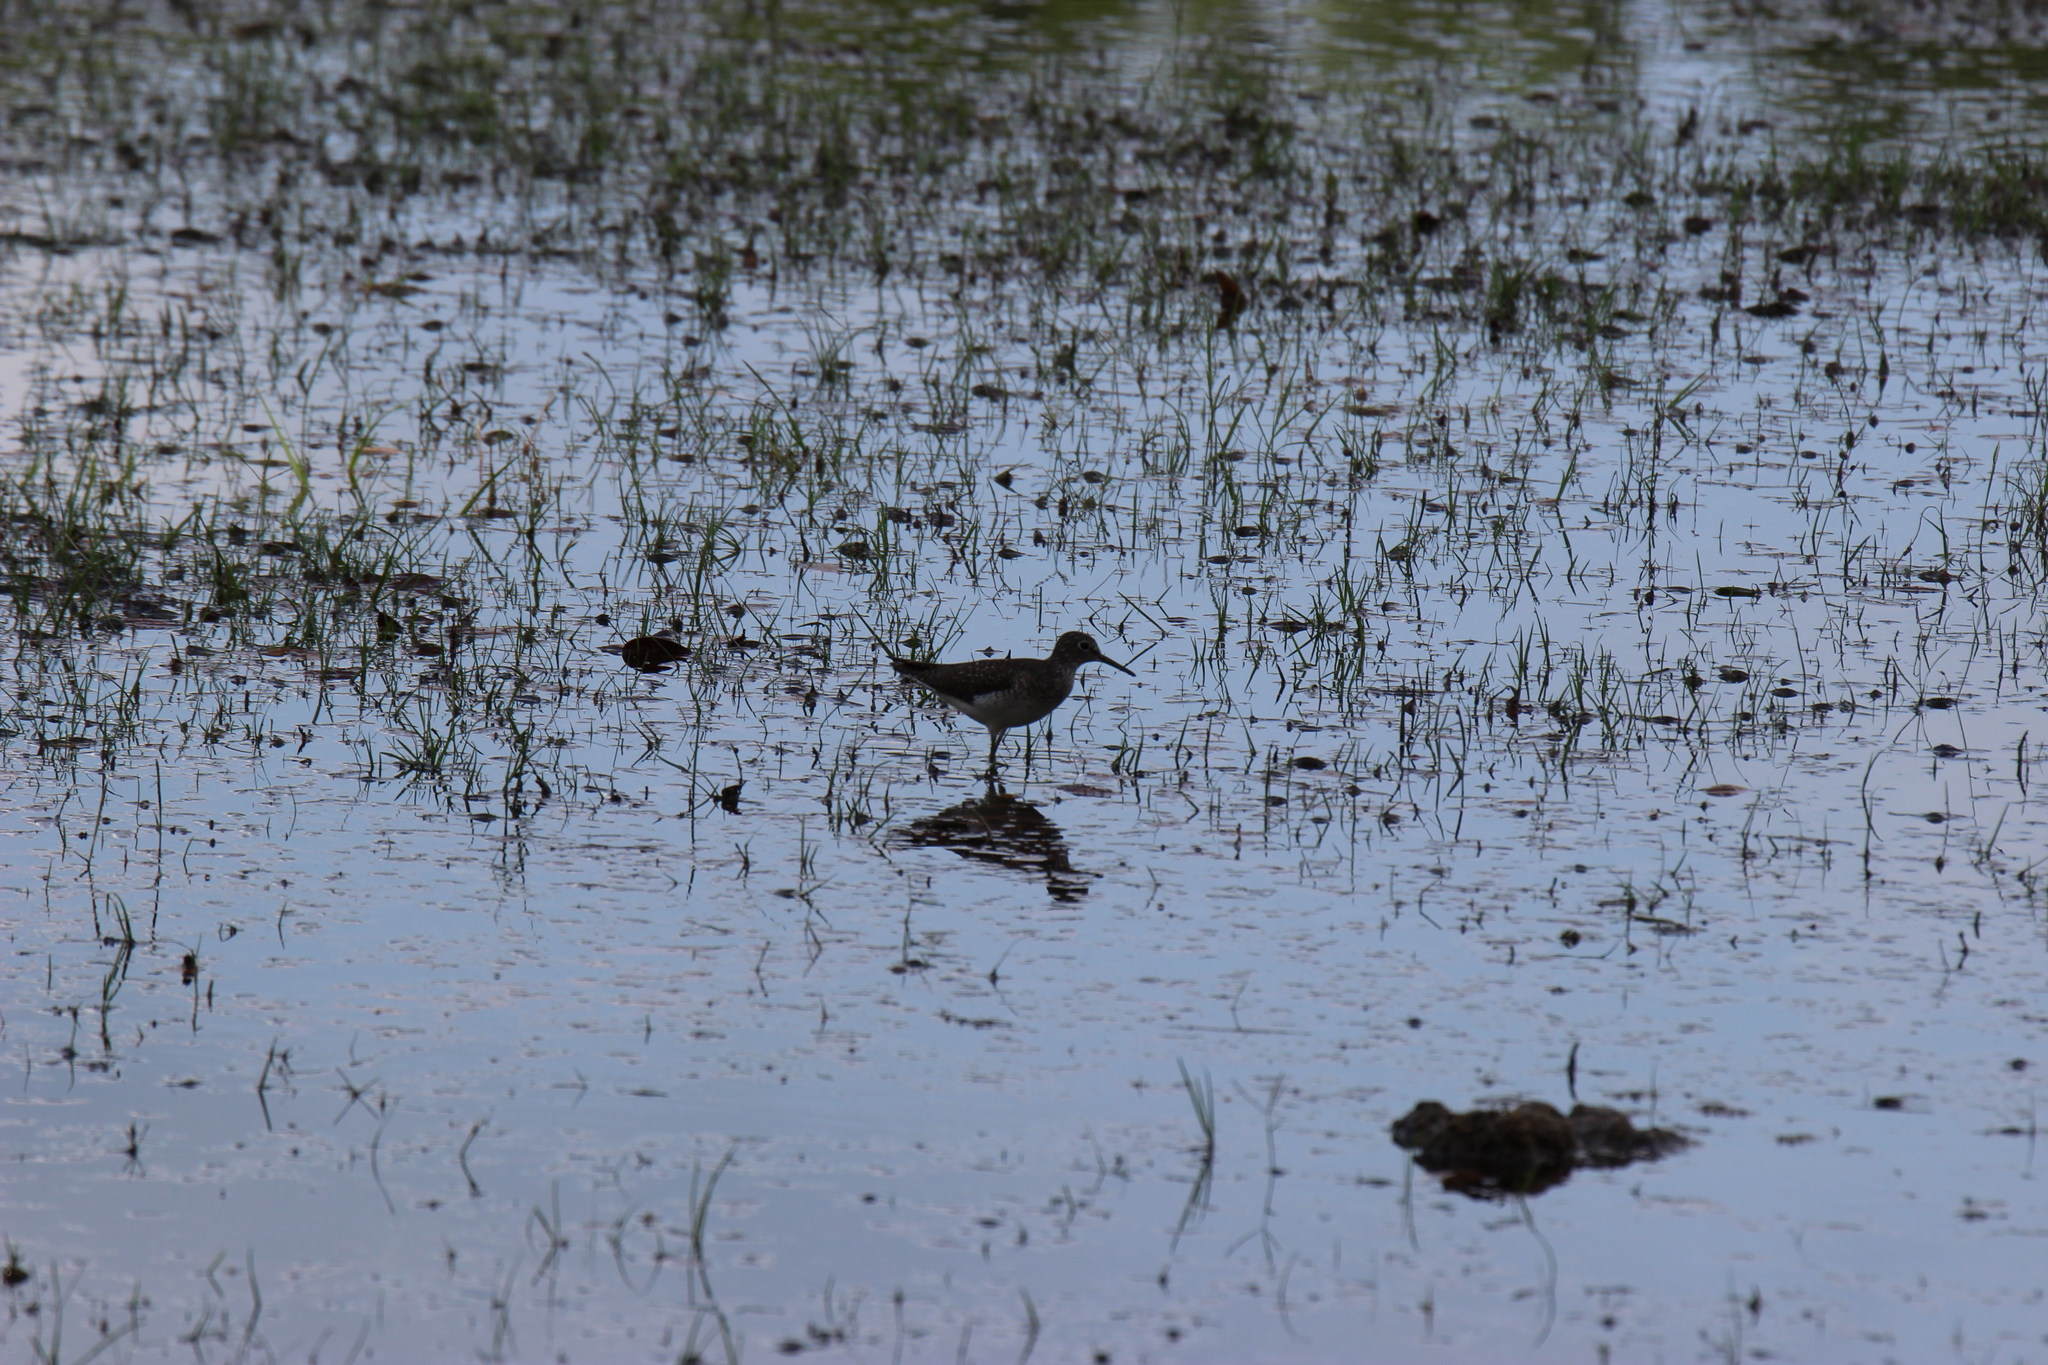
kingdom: Animalia
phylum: Chordata
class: Aves
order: Charadriiformes
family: Scolopacidae
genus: Tringa
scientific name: Tringa solitaria
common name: Solitary sandpiper
